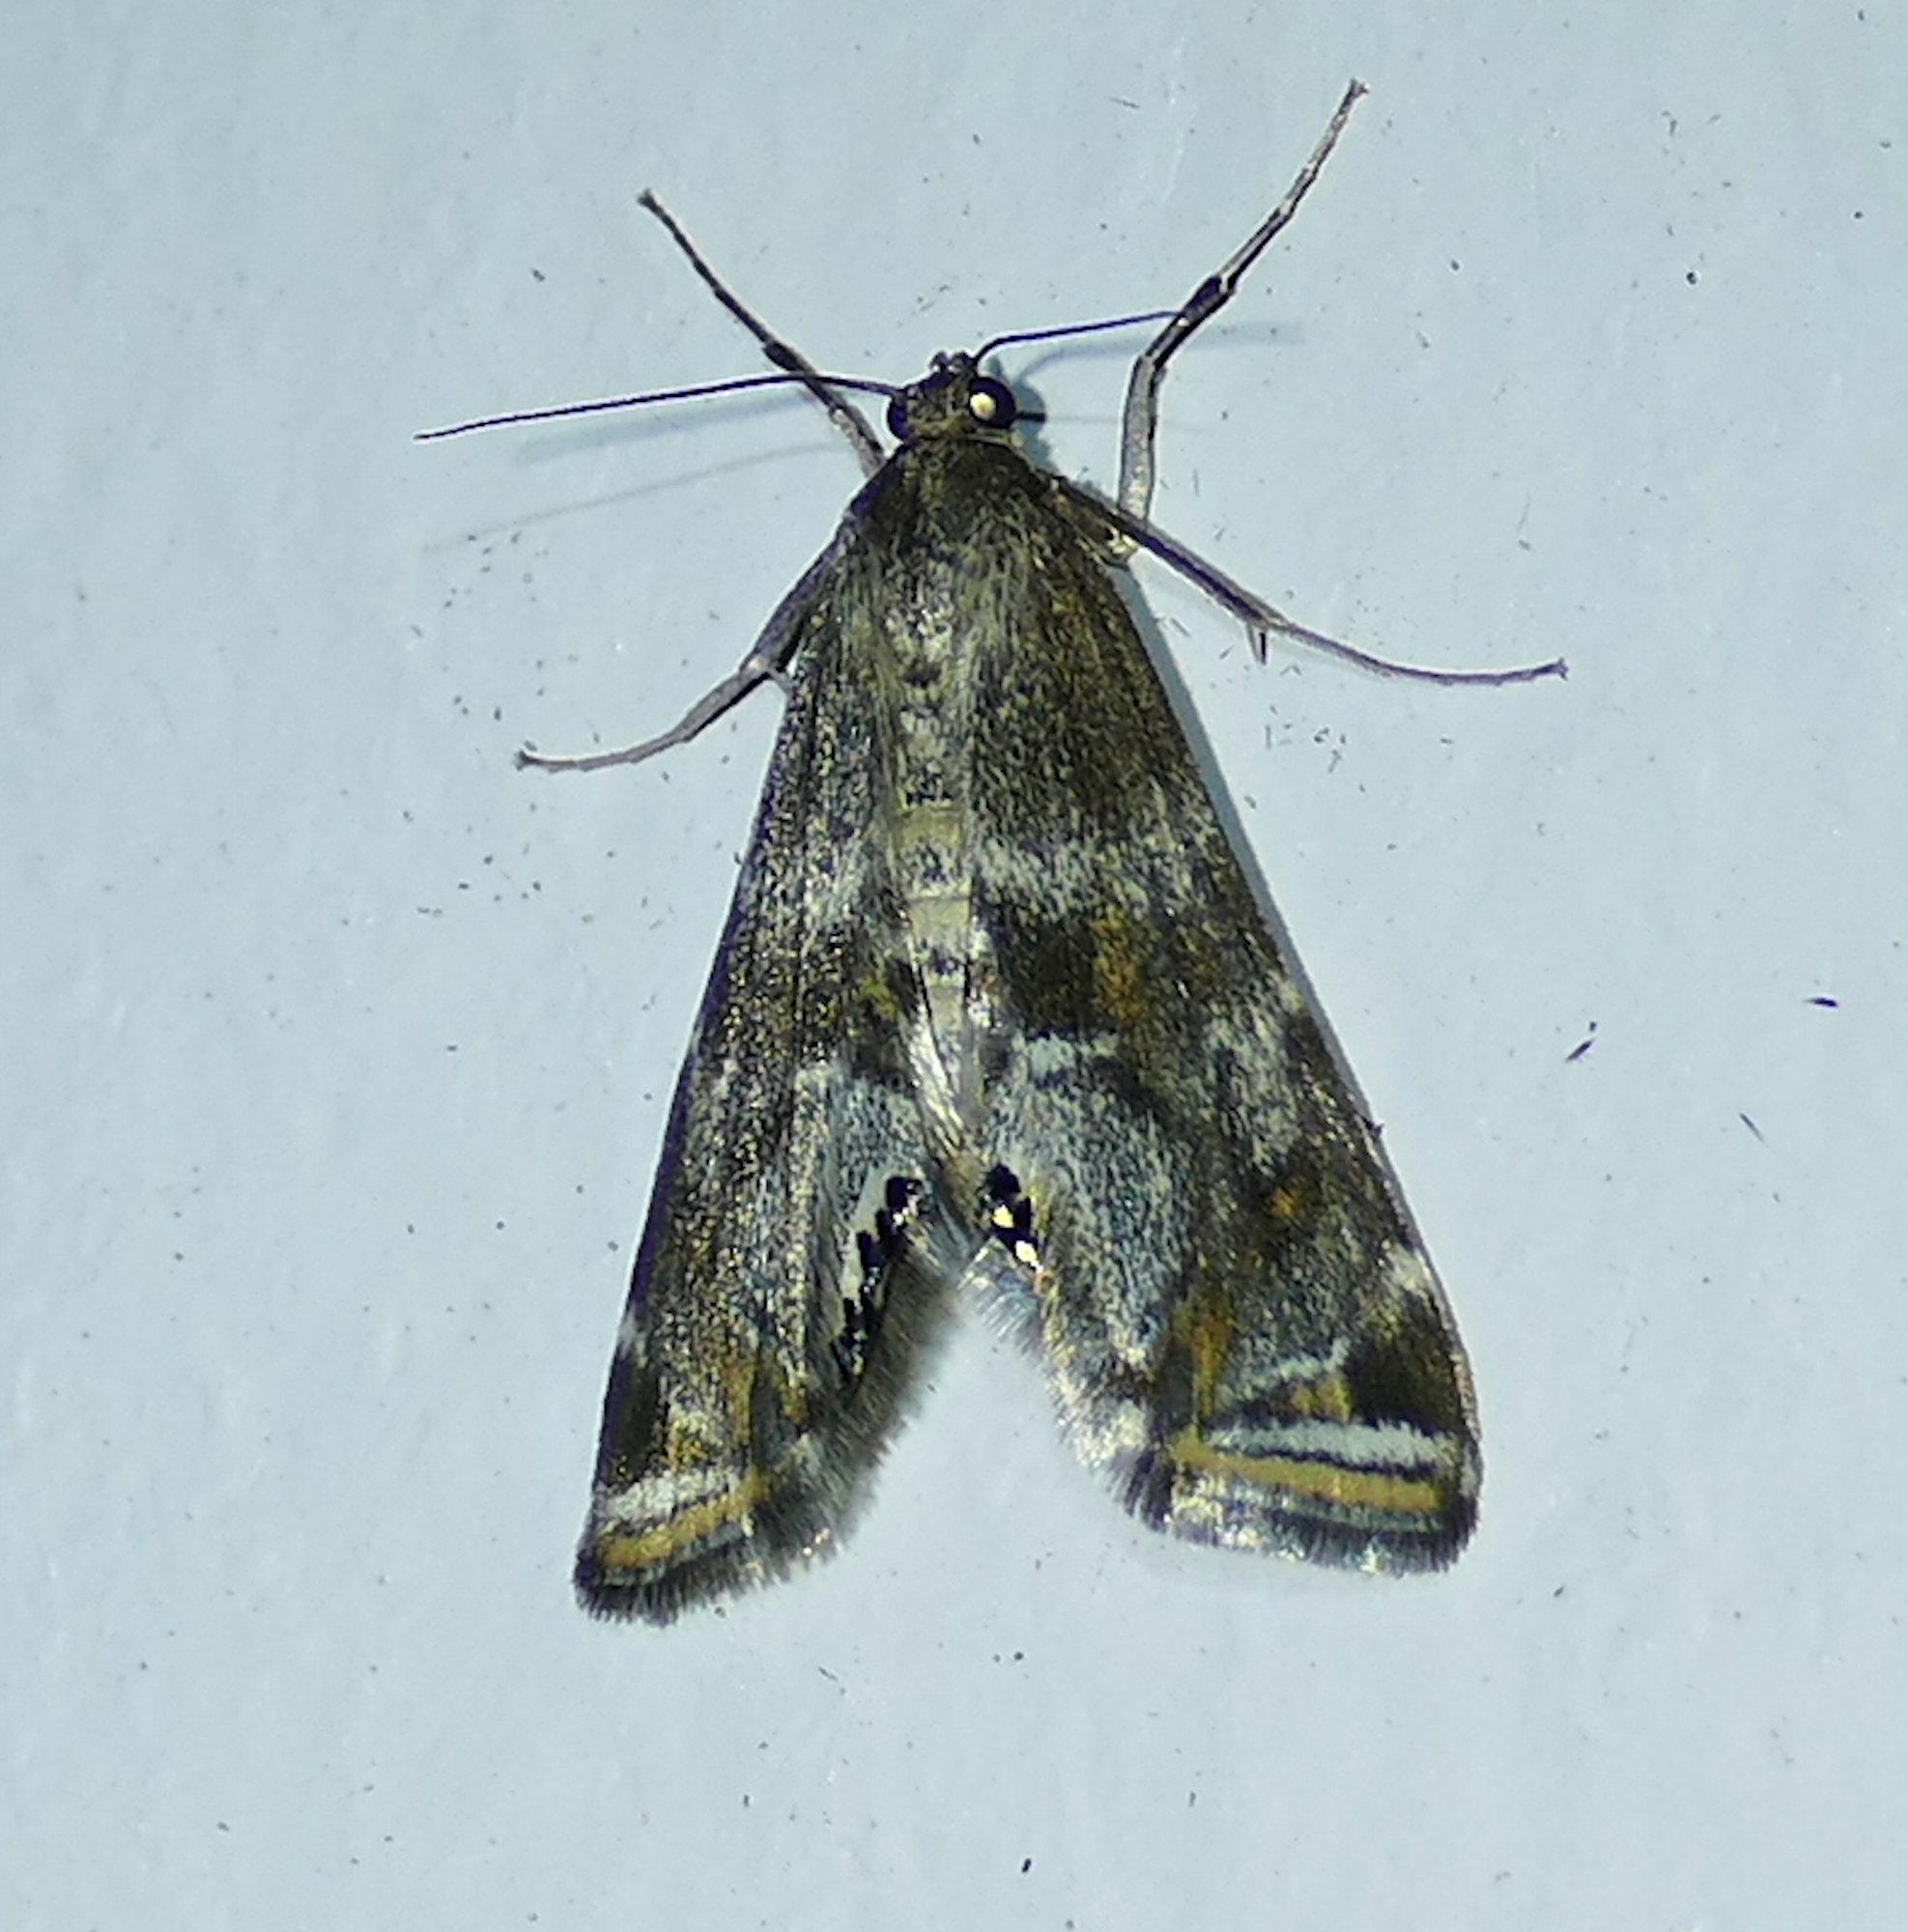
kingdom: Animalia
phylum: Arthropoda
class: Insecta
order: Lepidoptera
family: Crambidae
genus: Petrophila
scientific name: Petrophila longipennis
